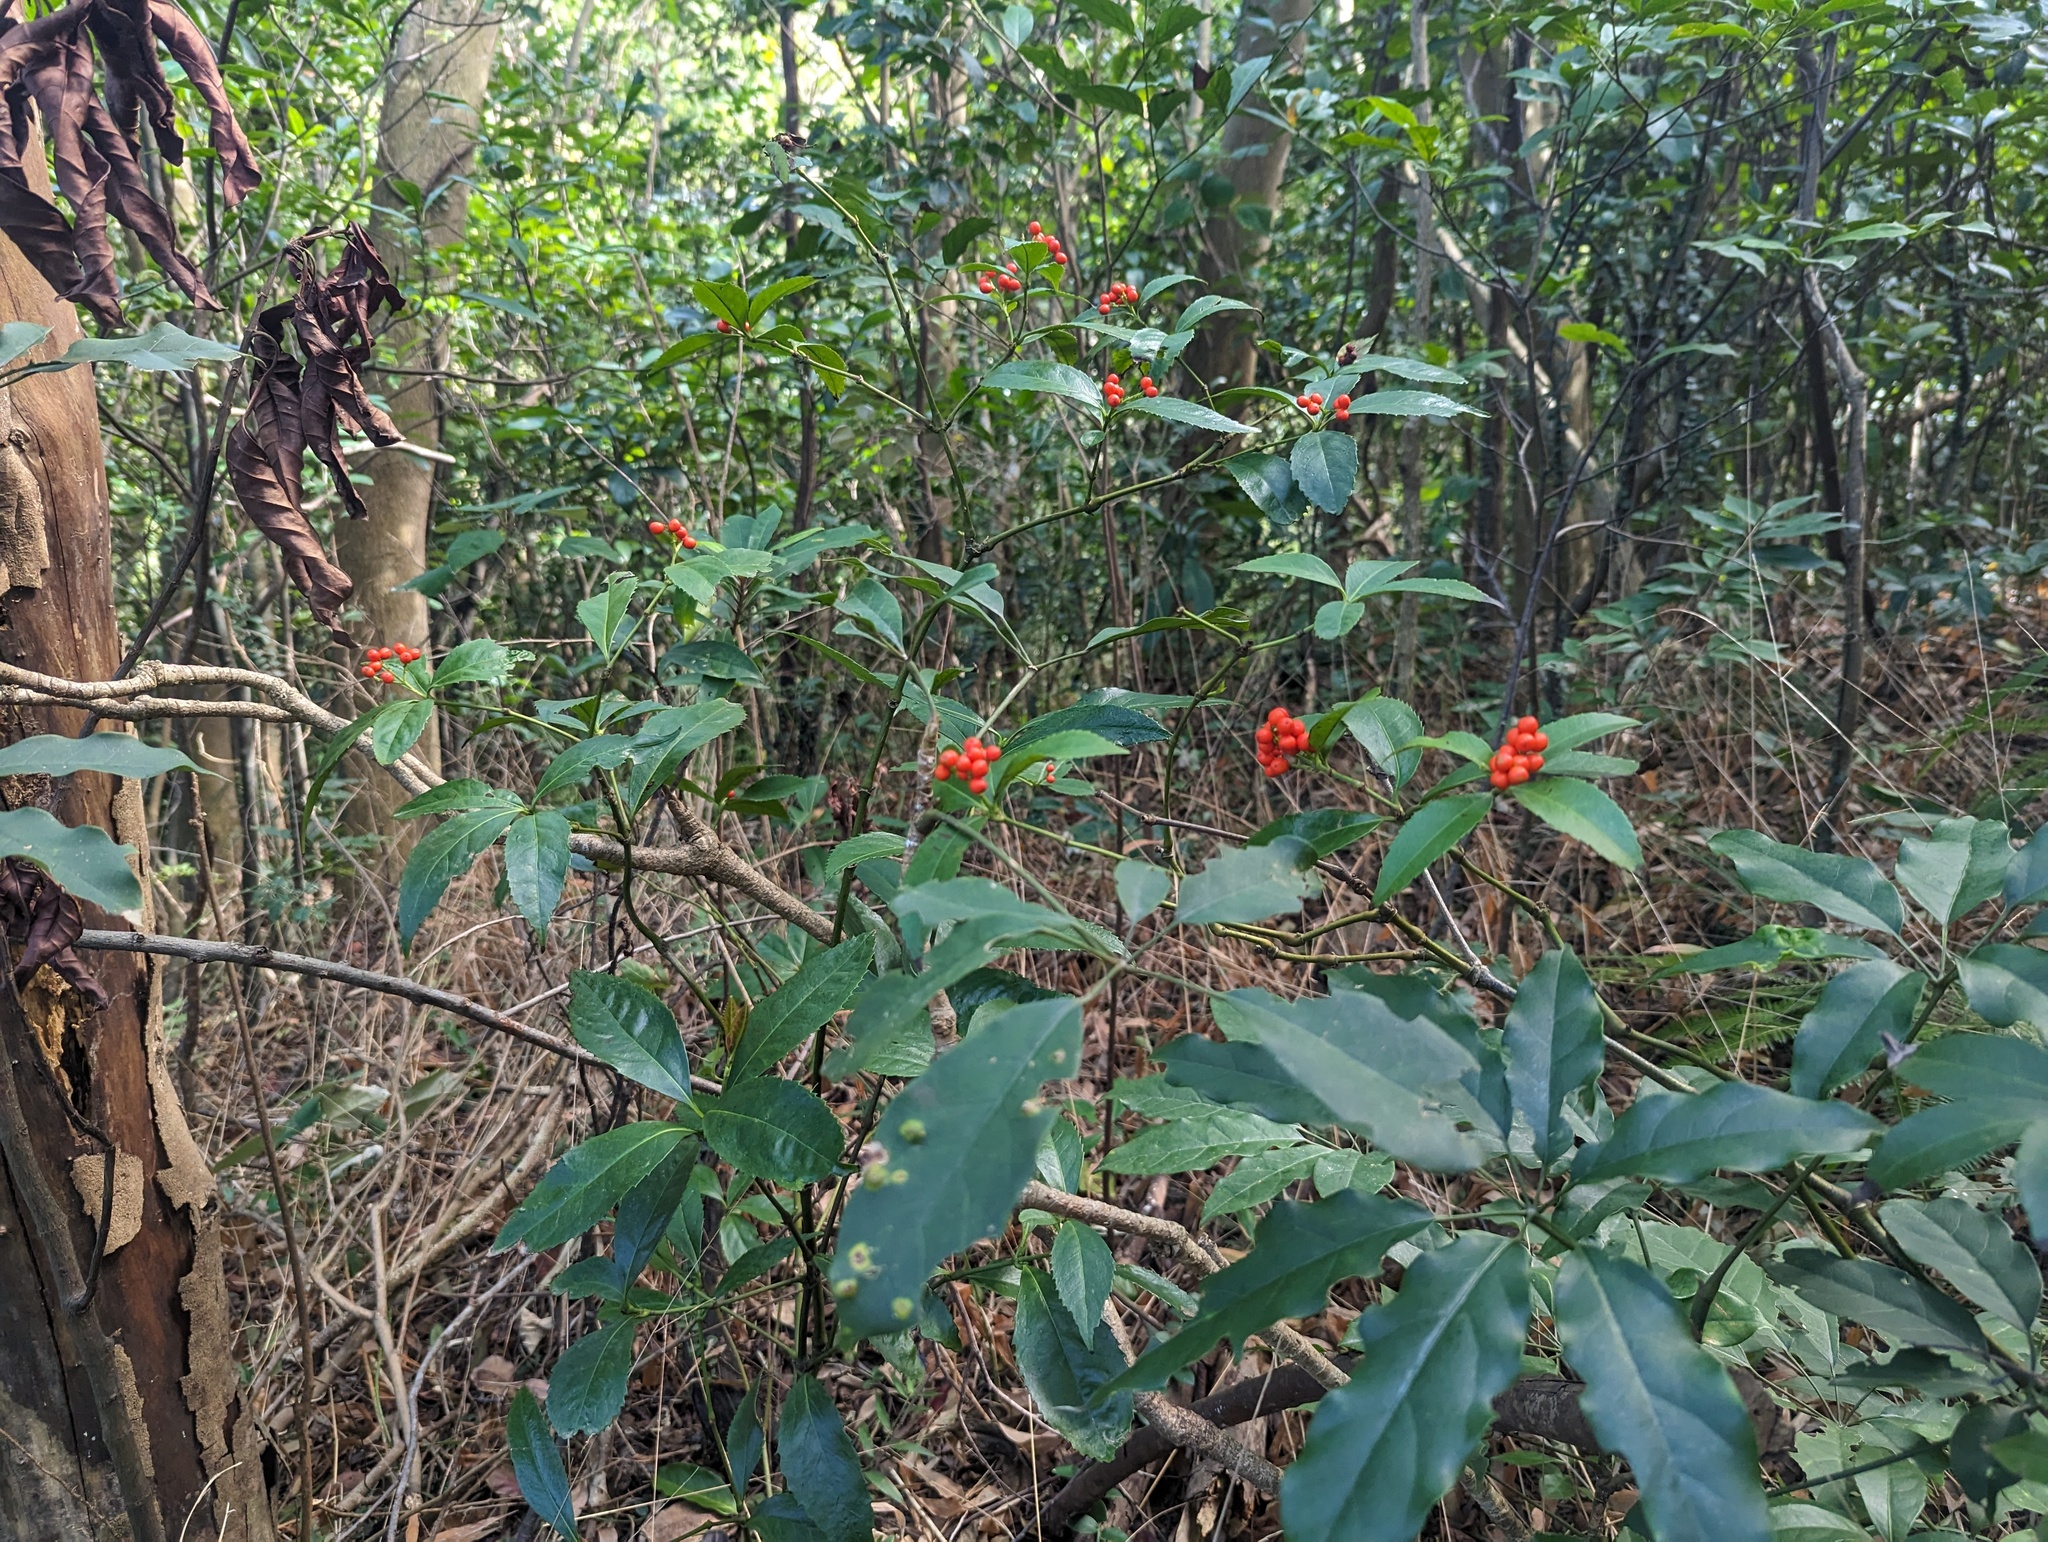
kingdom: Plantae
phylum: Tracheophyta
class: Magnoliopsida
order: Gentianales
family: Rubiaceae
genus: Psychotria
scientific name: Psychotria asiatica
